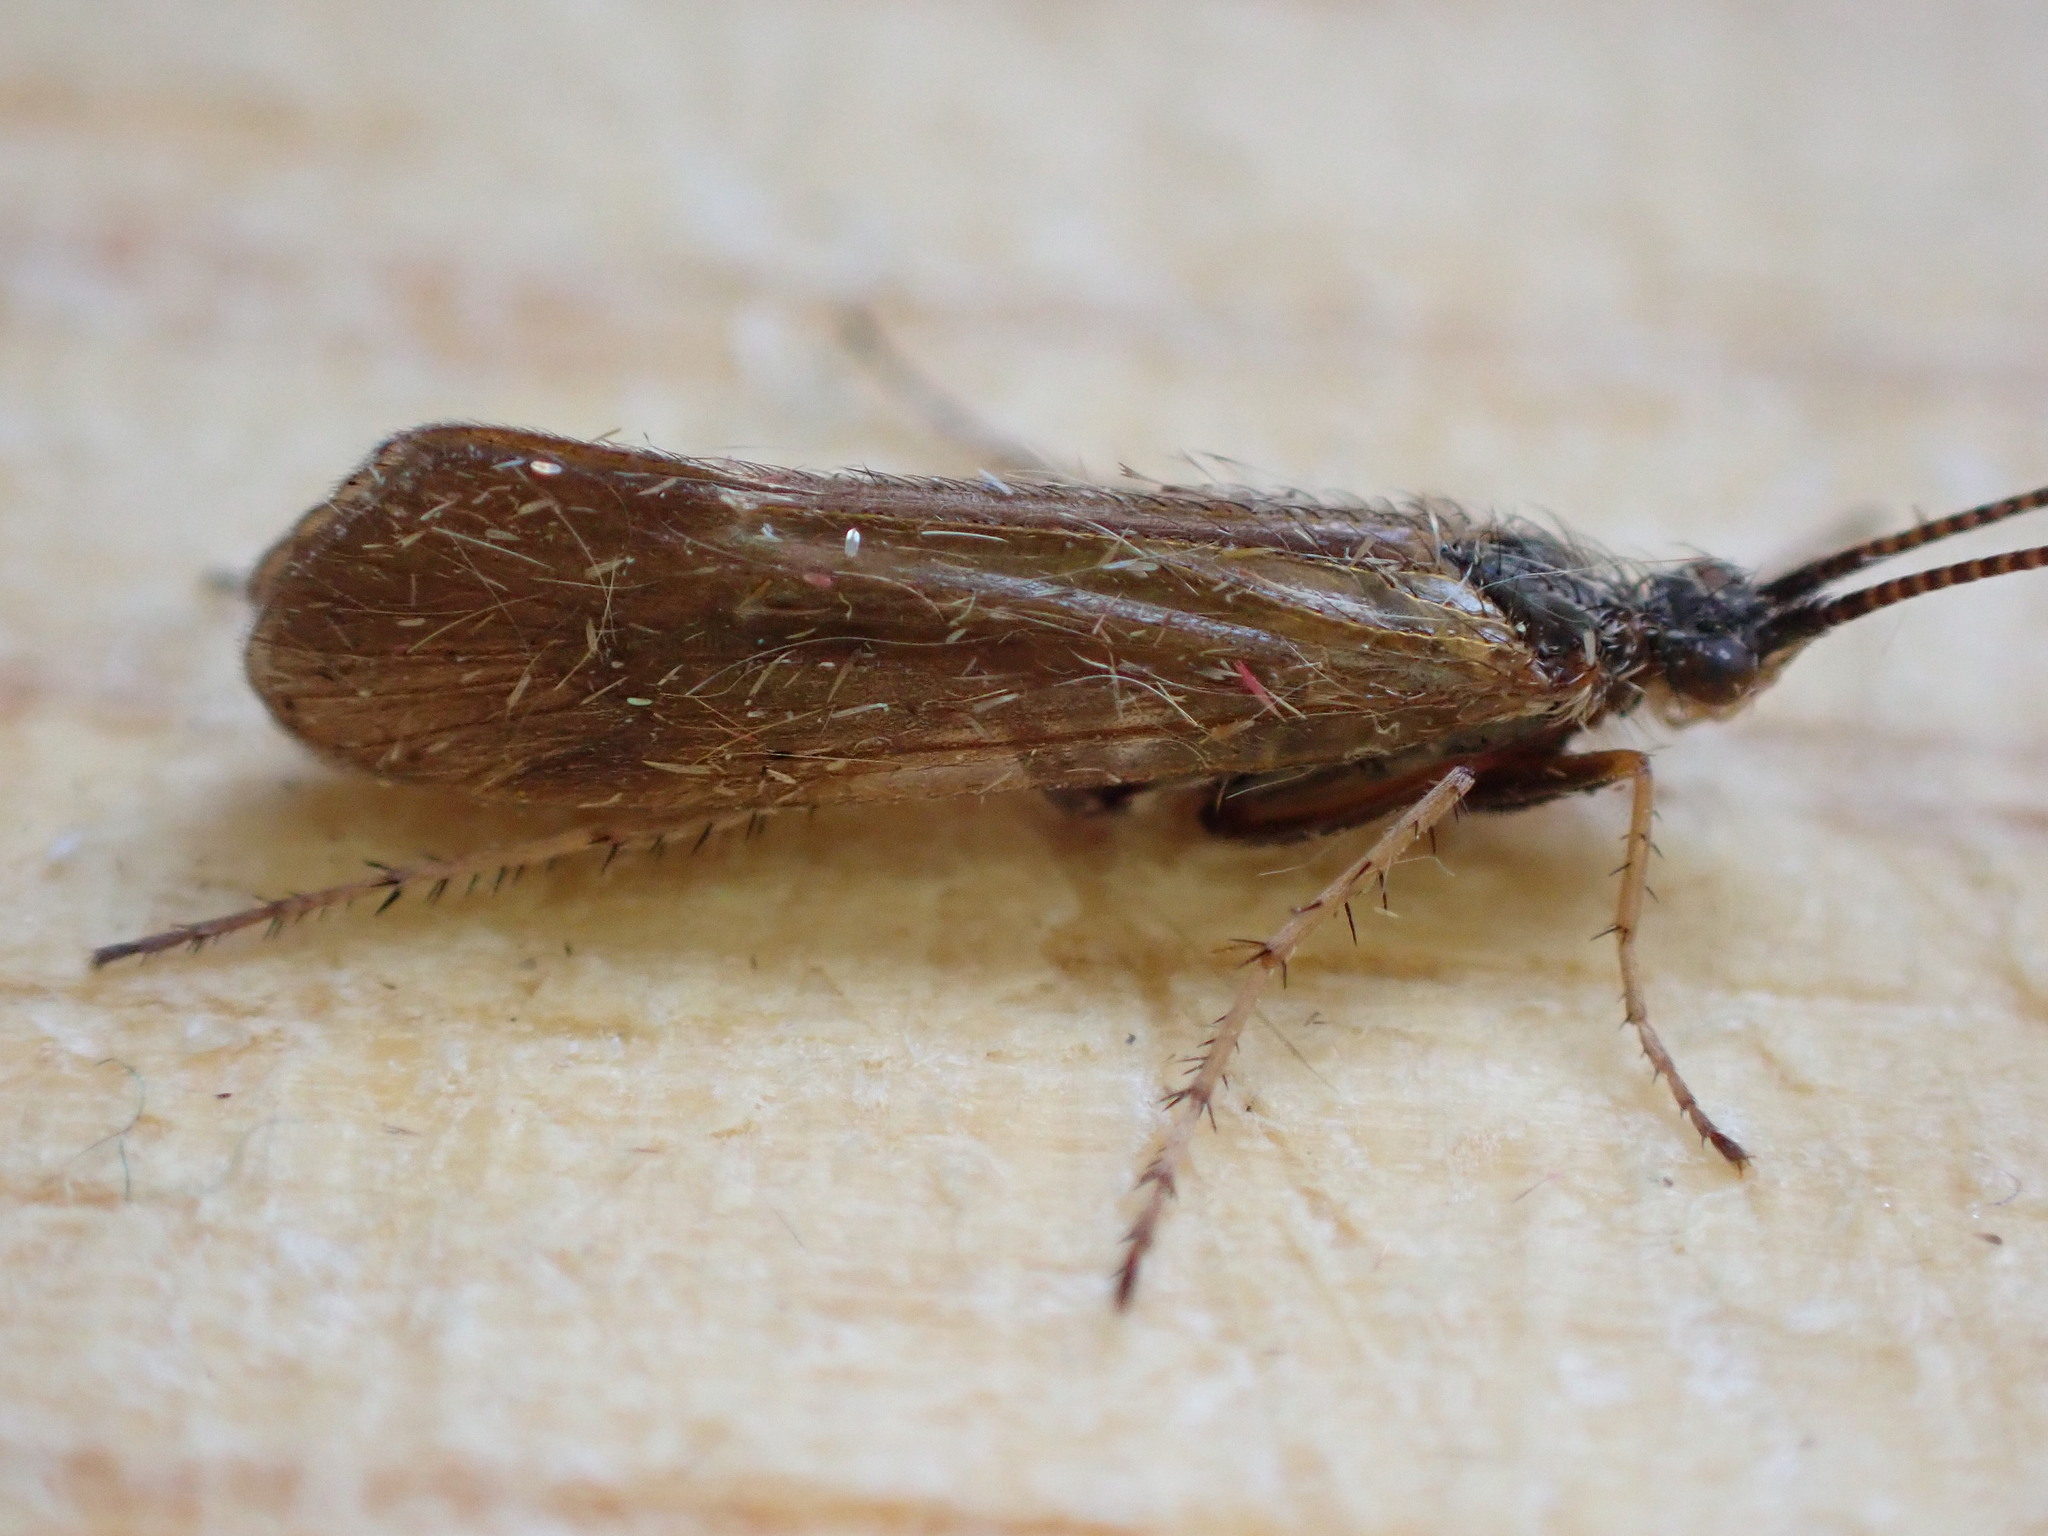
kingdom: Animalia
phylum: Arthropoda
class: Insecta
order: Trichoptera
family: Limnephilidae
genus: Limnephilus
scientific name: Limnephilus auricula
